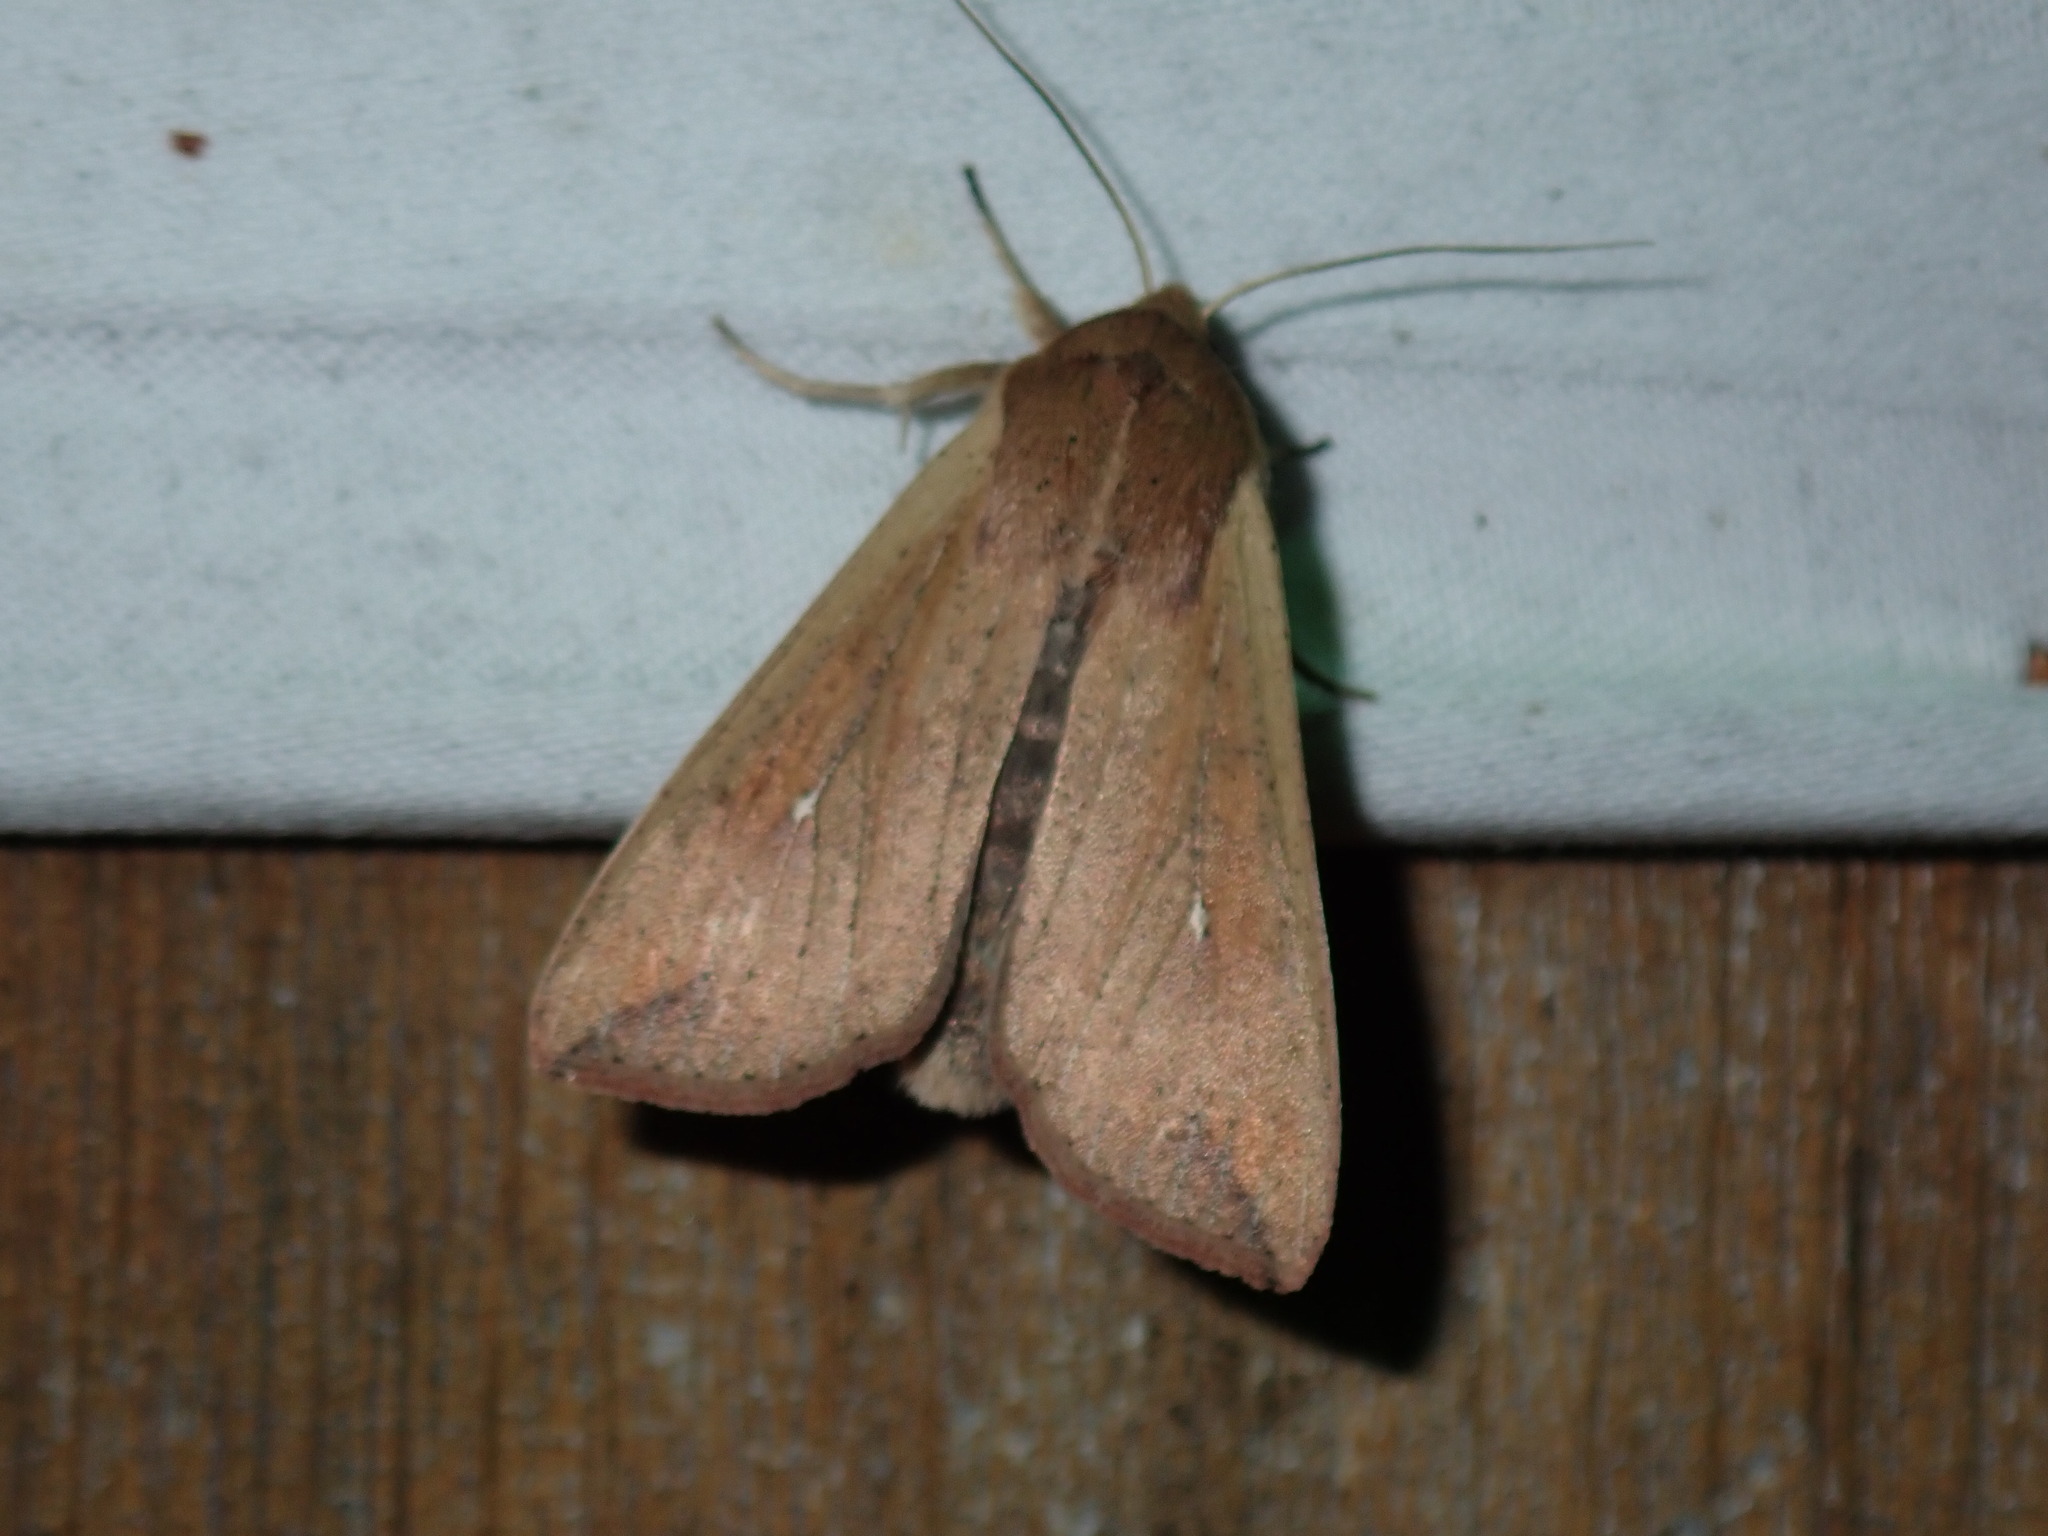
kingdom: Animalia
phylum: Arthropoda
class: Insecta
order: Lepidoptera
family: Noctuidae
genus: Mythimna
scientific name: Mythimna unipuncta
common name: White-speck
